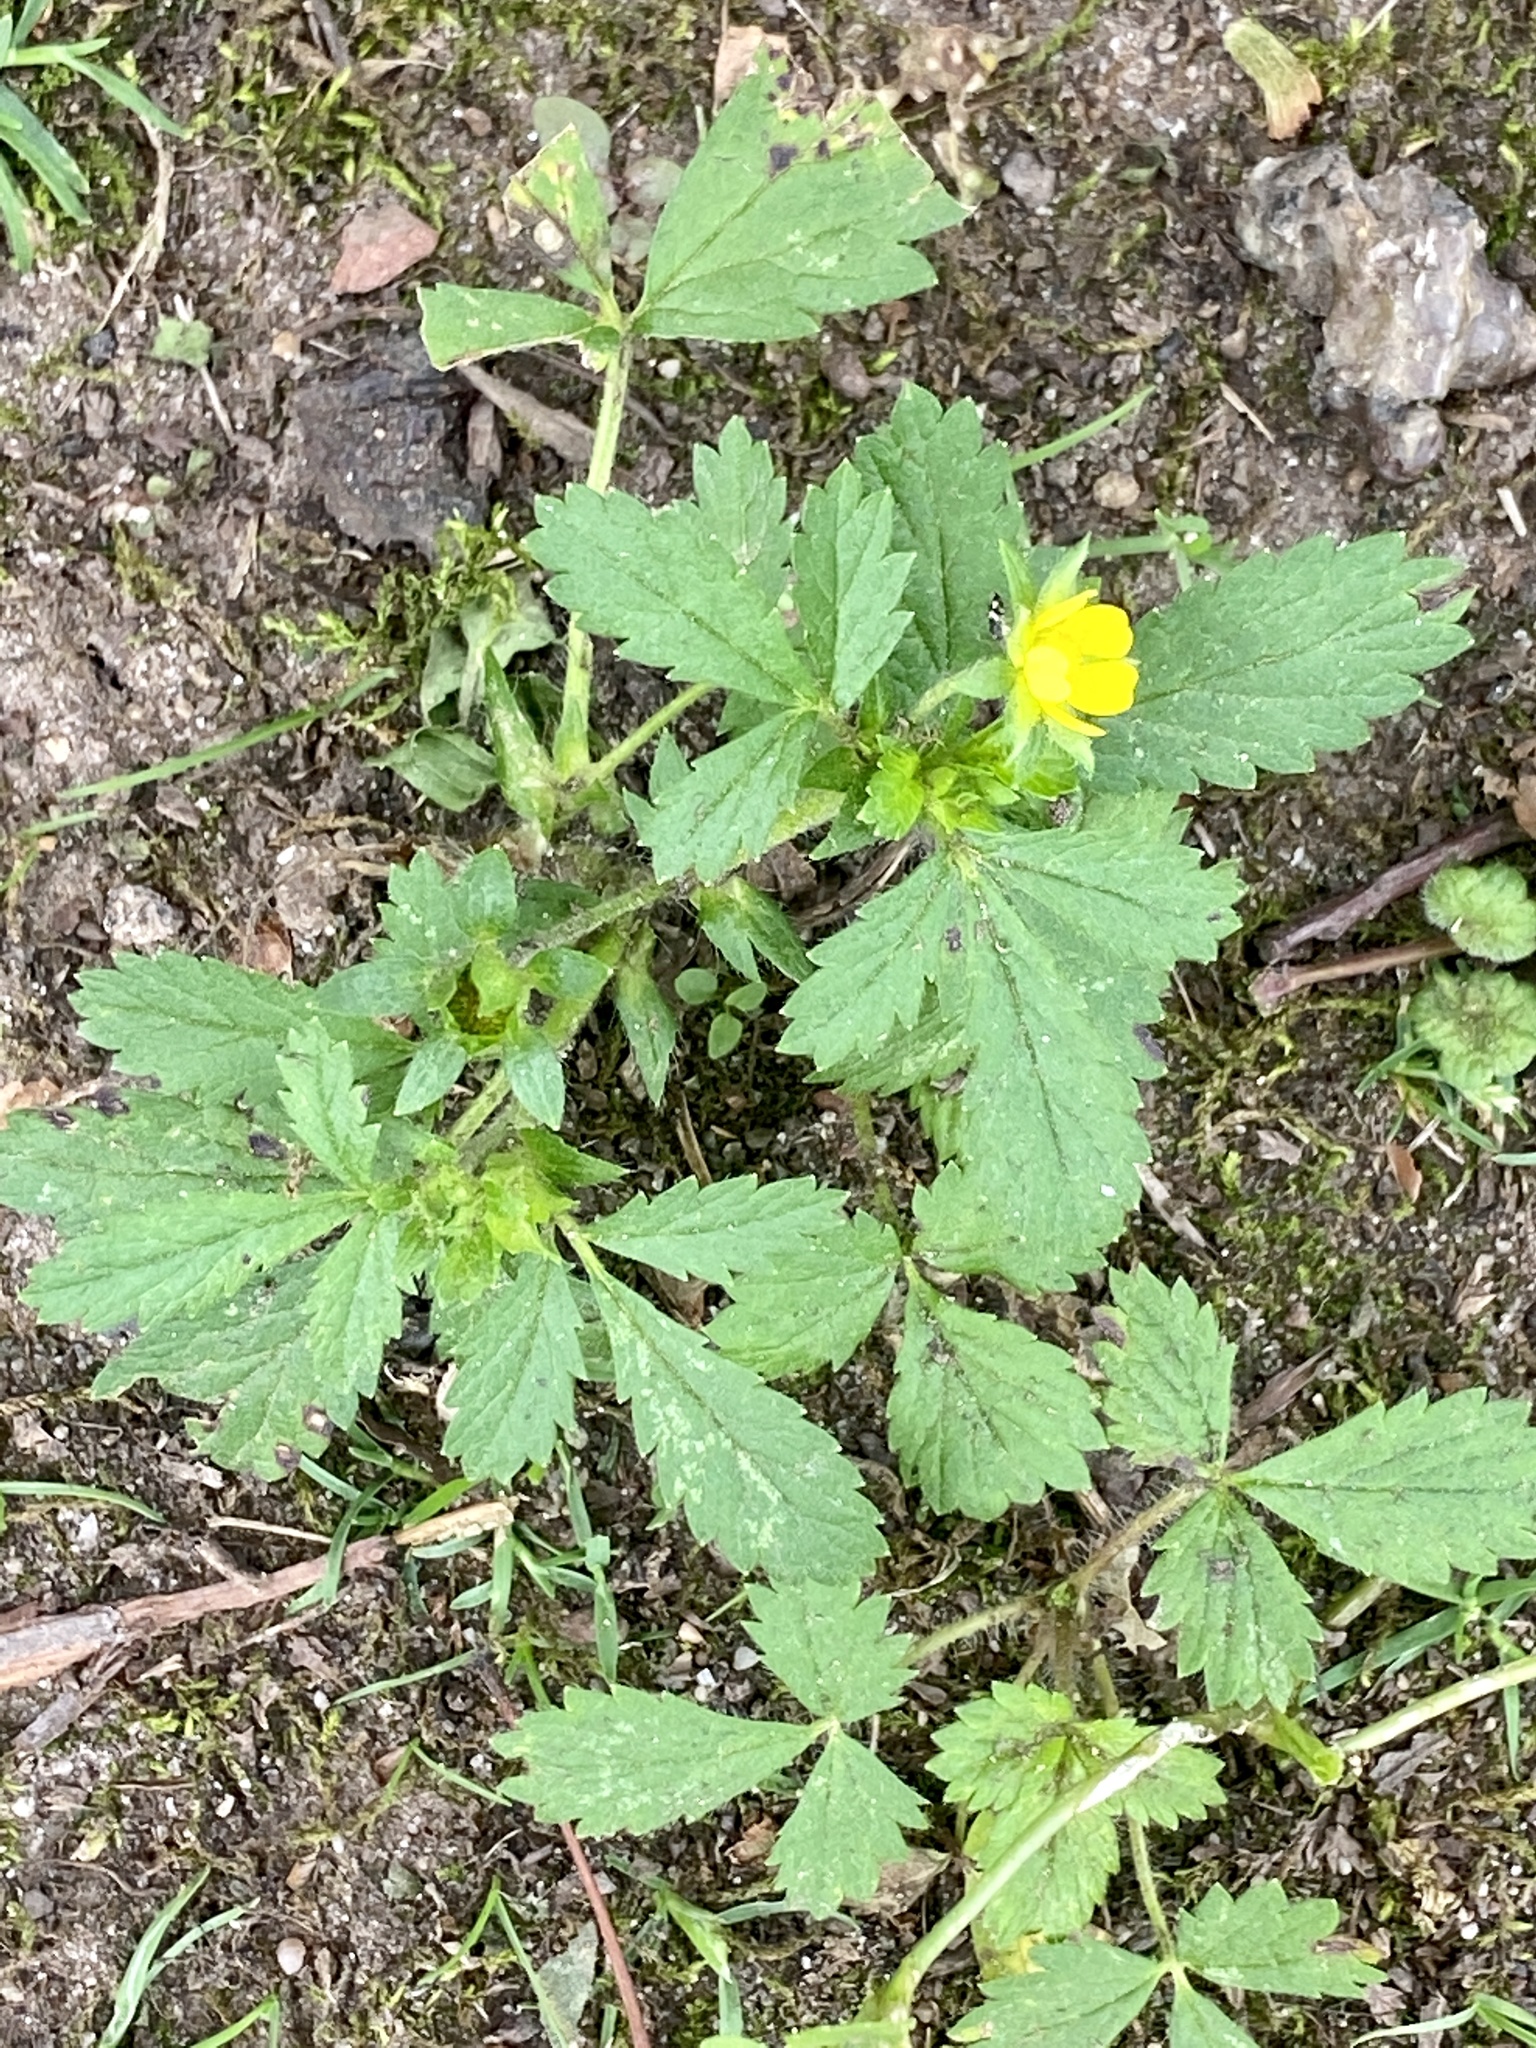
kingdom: Plantae
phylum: Tracheophyta
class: Magnoliopsida
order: Rosales
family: Rosaceae
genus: Potentilla
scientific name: Potentilla norvegica
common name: Ternate-leaved cinquefoil
